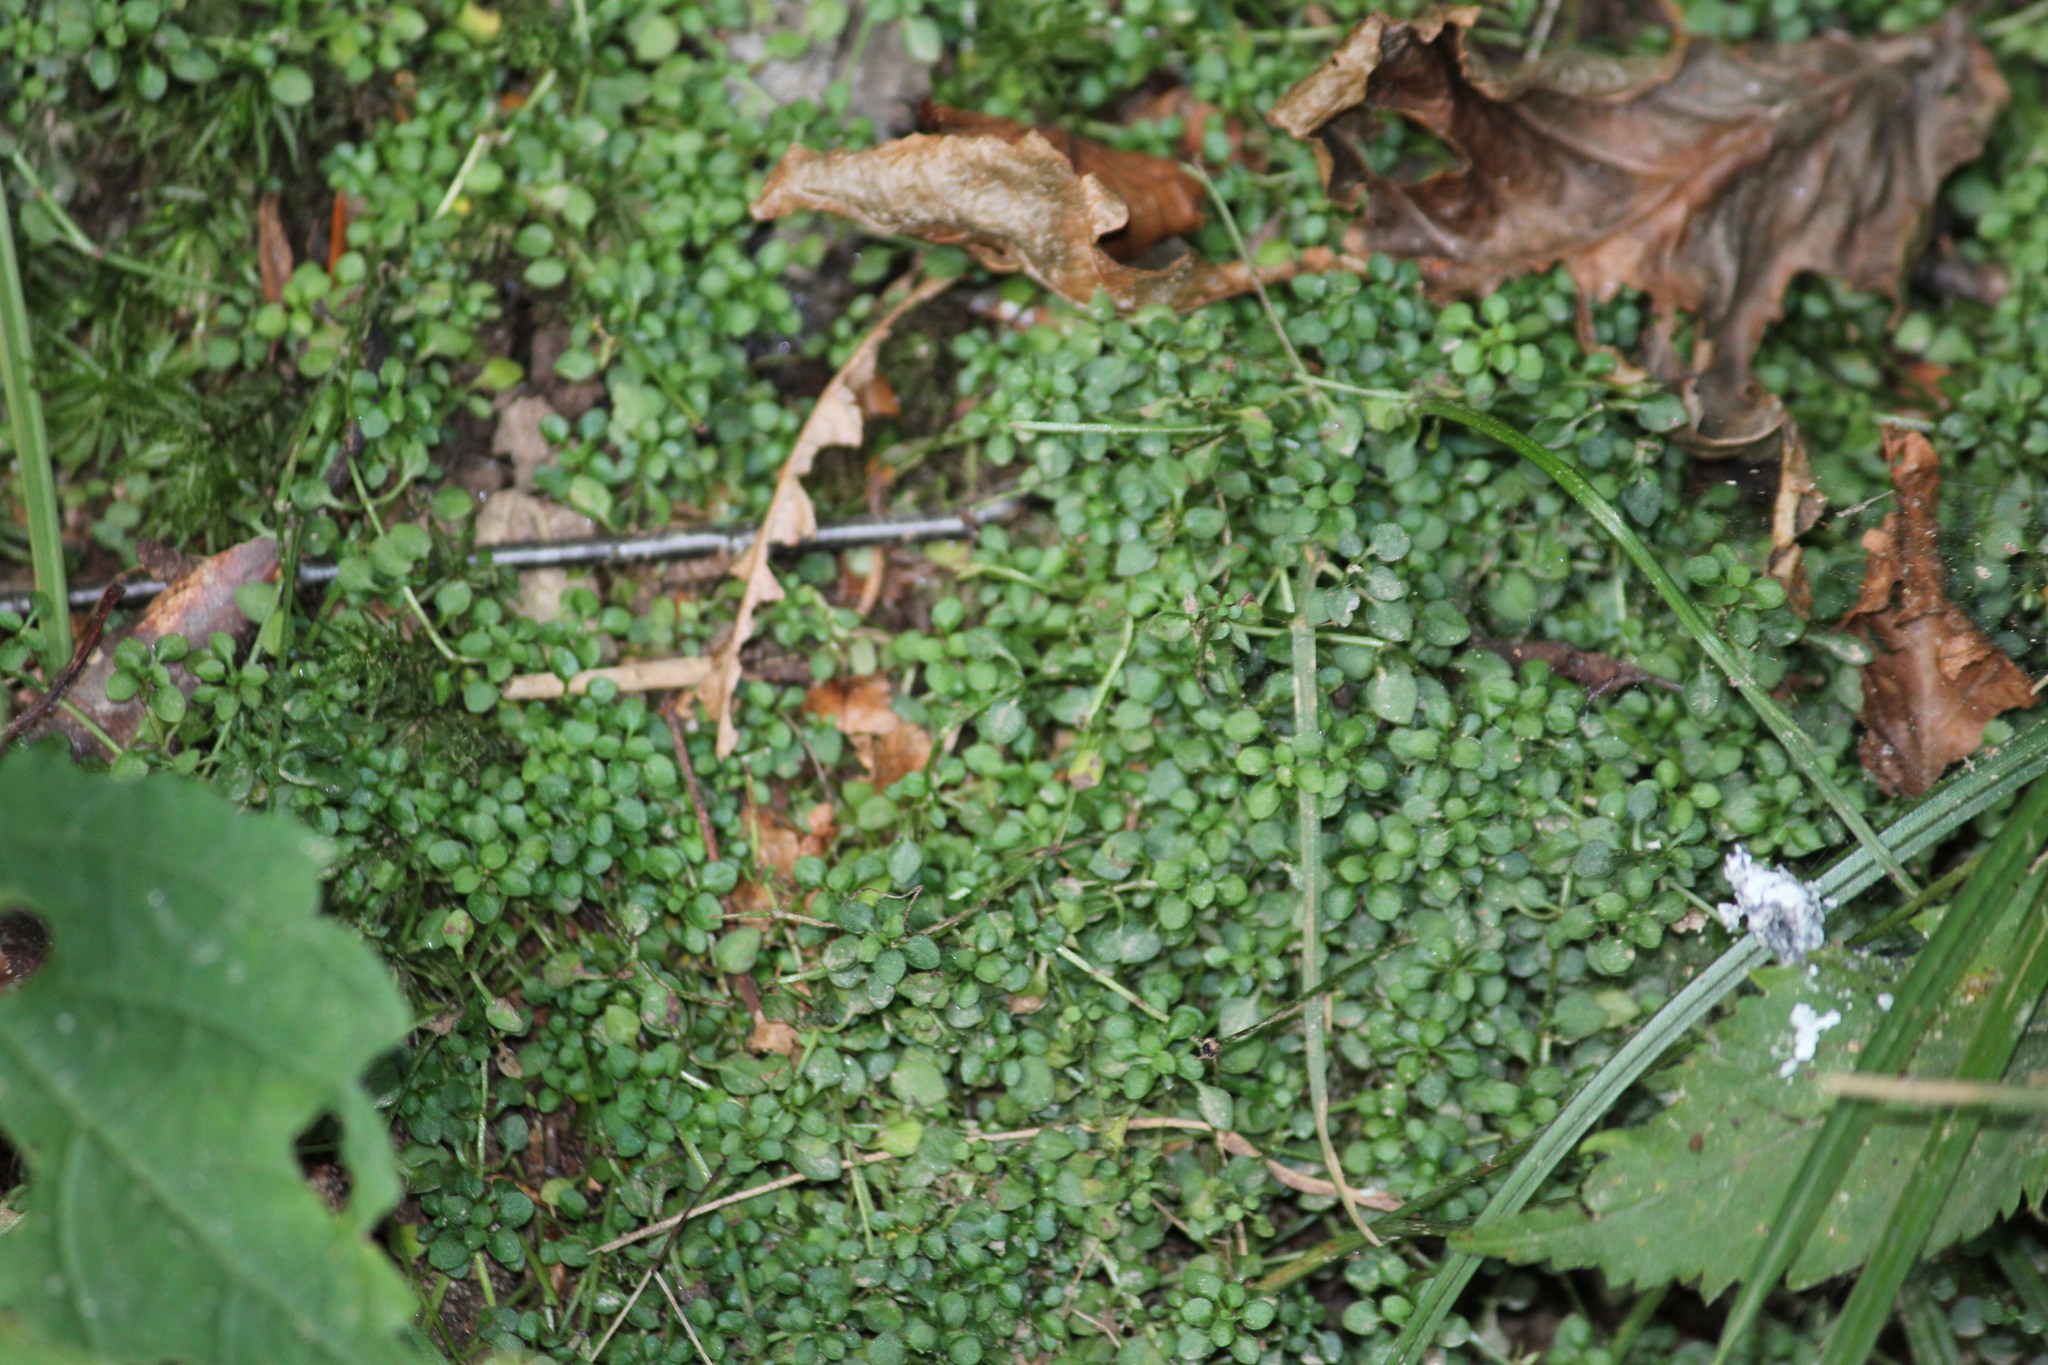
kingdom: Plantae
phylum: Tracheophyta
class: Magnoliopsida
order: Gentianales
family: Rubiaceae
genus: Houstonia
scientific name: Houstonia serpyllifolia
